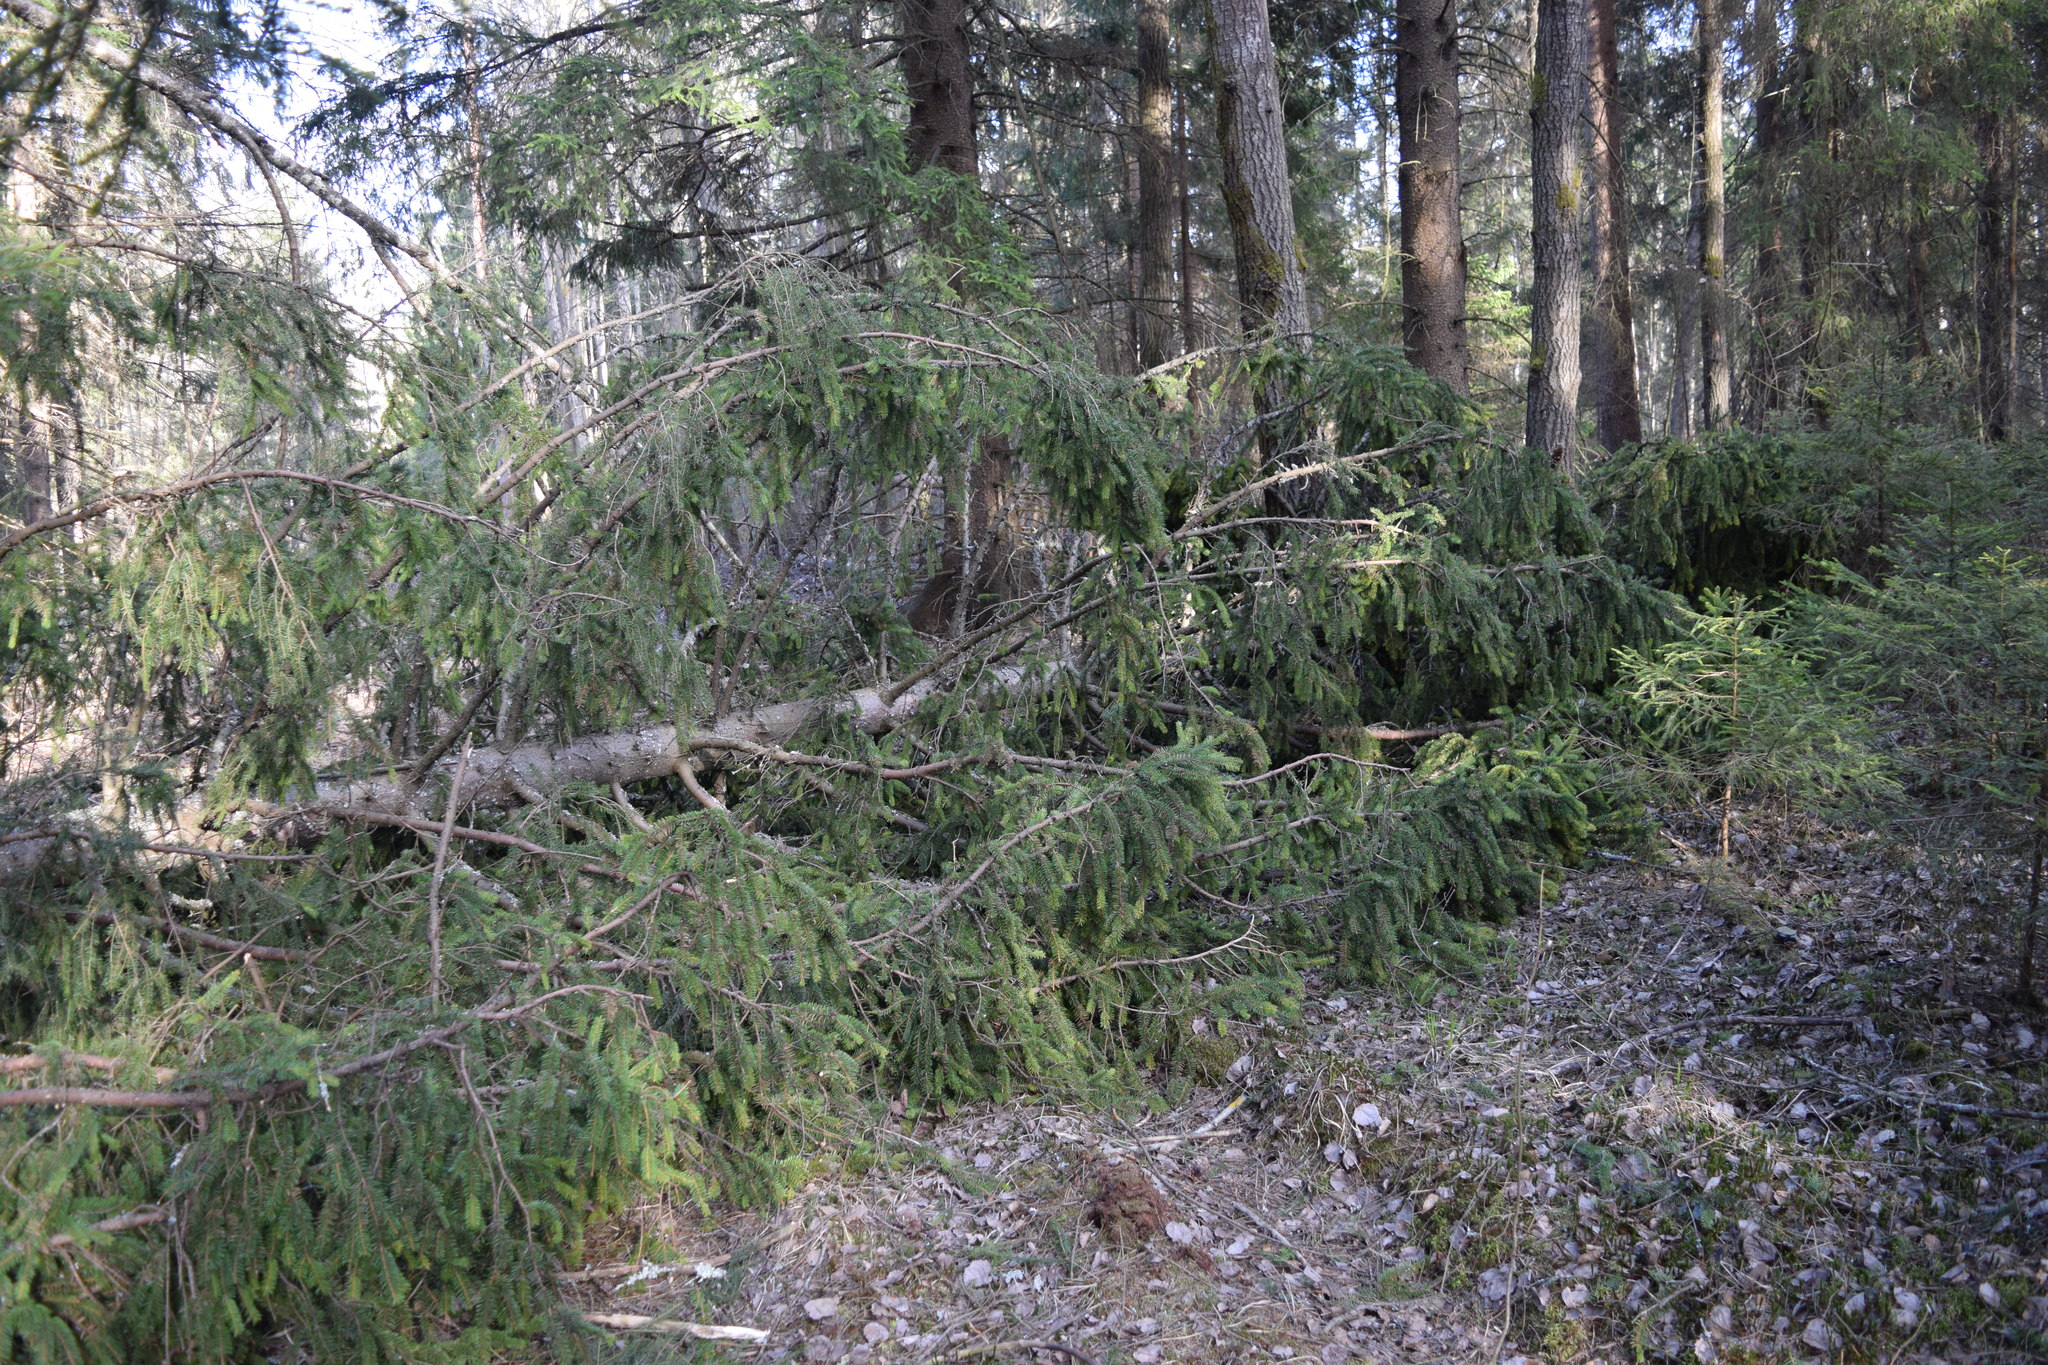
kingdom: Plantae
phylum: Tracheophyta
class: Pinopsida
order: Pinales
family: Pinaceae
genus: Picea
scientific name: Picea abies
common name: Norway spruce
